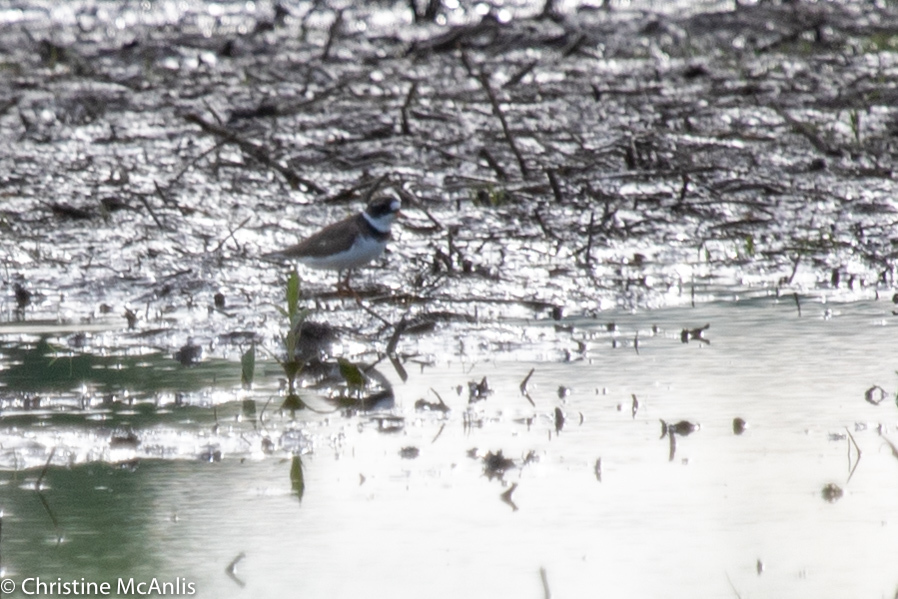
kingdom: Animalia
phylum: Chordata
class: Aves
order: Charadriiformes
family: Charadriidae
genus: Charadrius
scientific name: Charadrius semipalmatus
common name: Semipalmated plover
